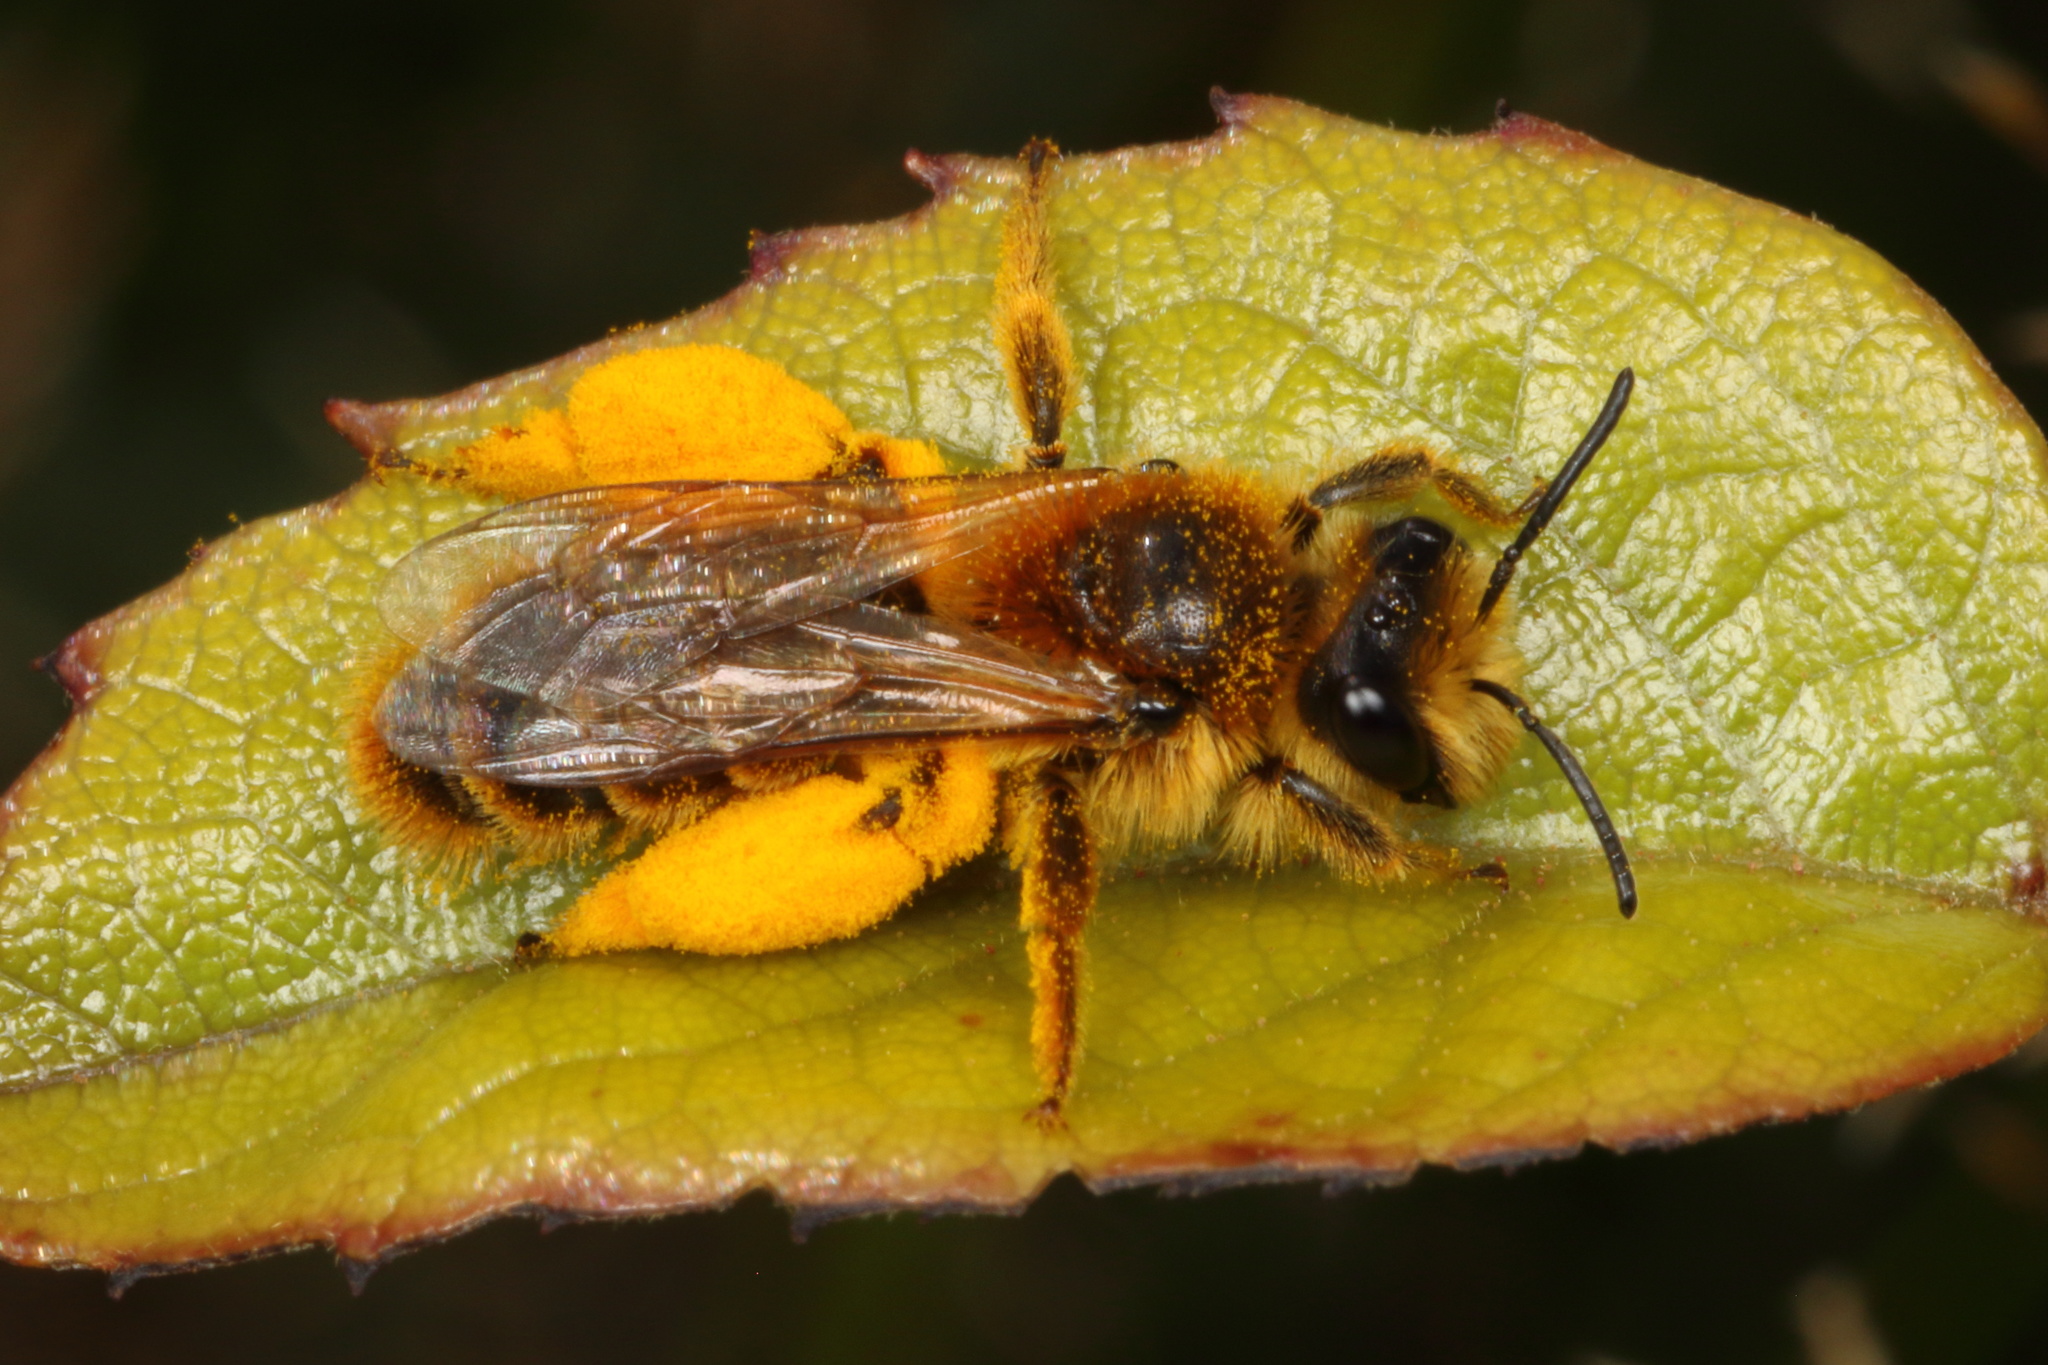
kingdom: Animalia
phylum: Arthropoda
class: Insecta
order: Hymenoptera
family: Colletidae
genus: Leioproctus
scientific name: Leioproctus fulvescens
